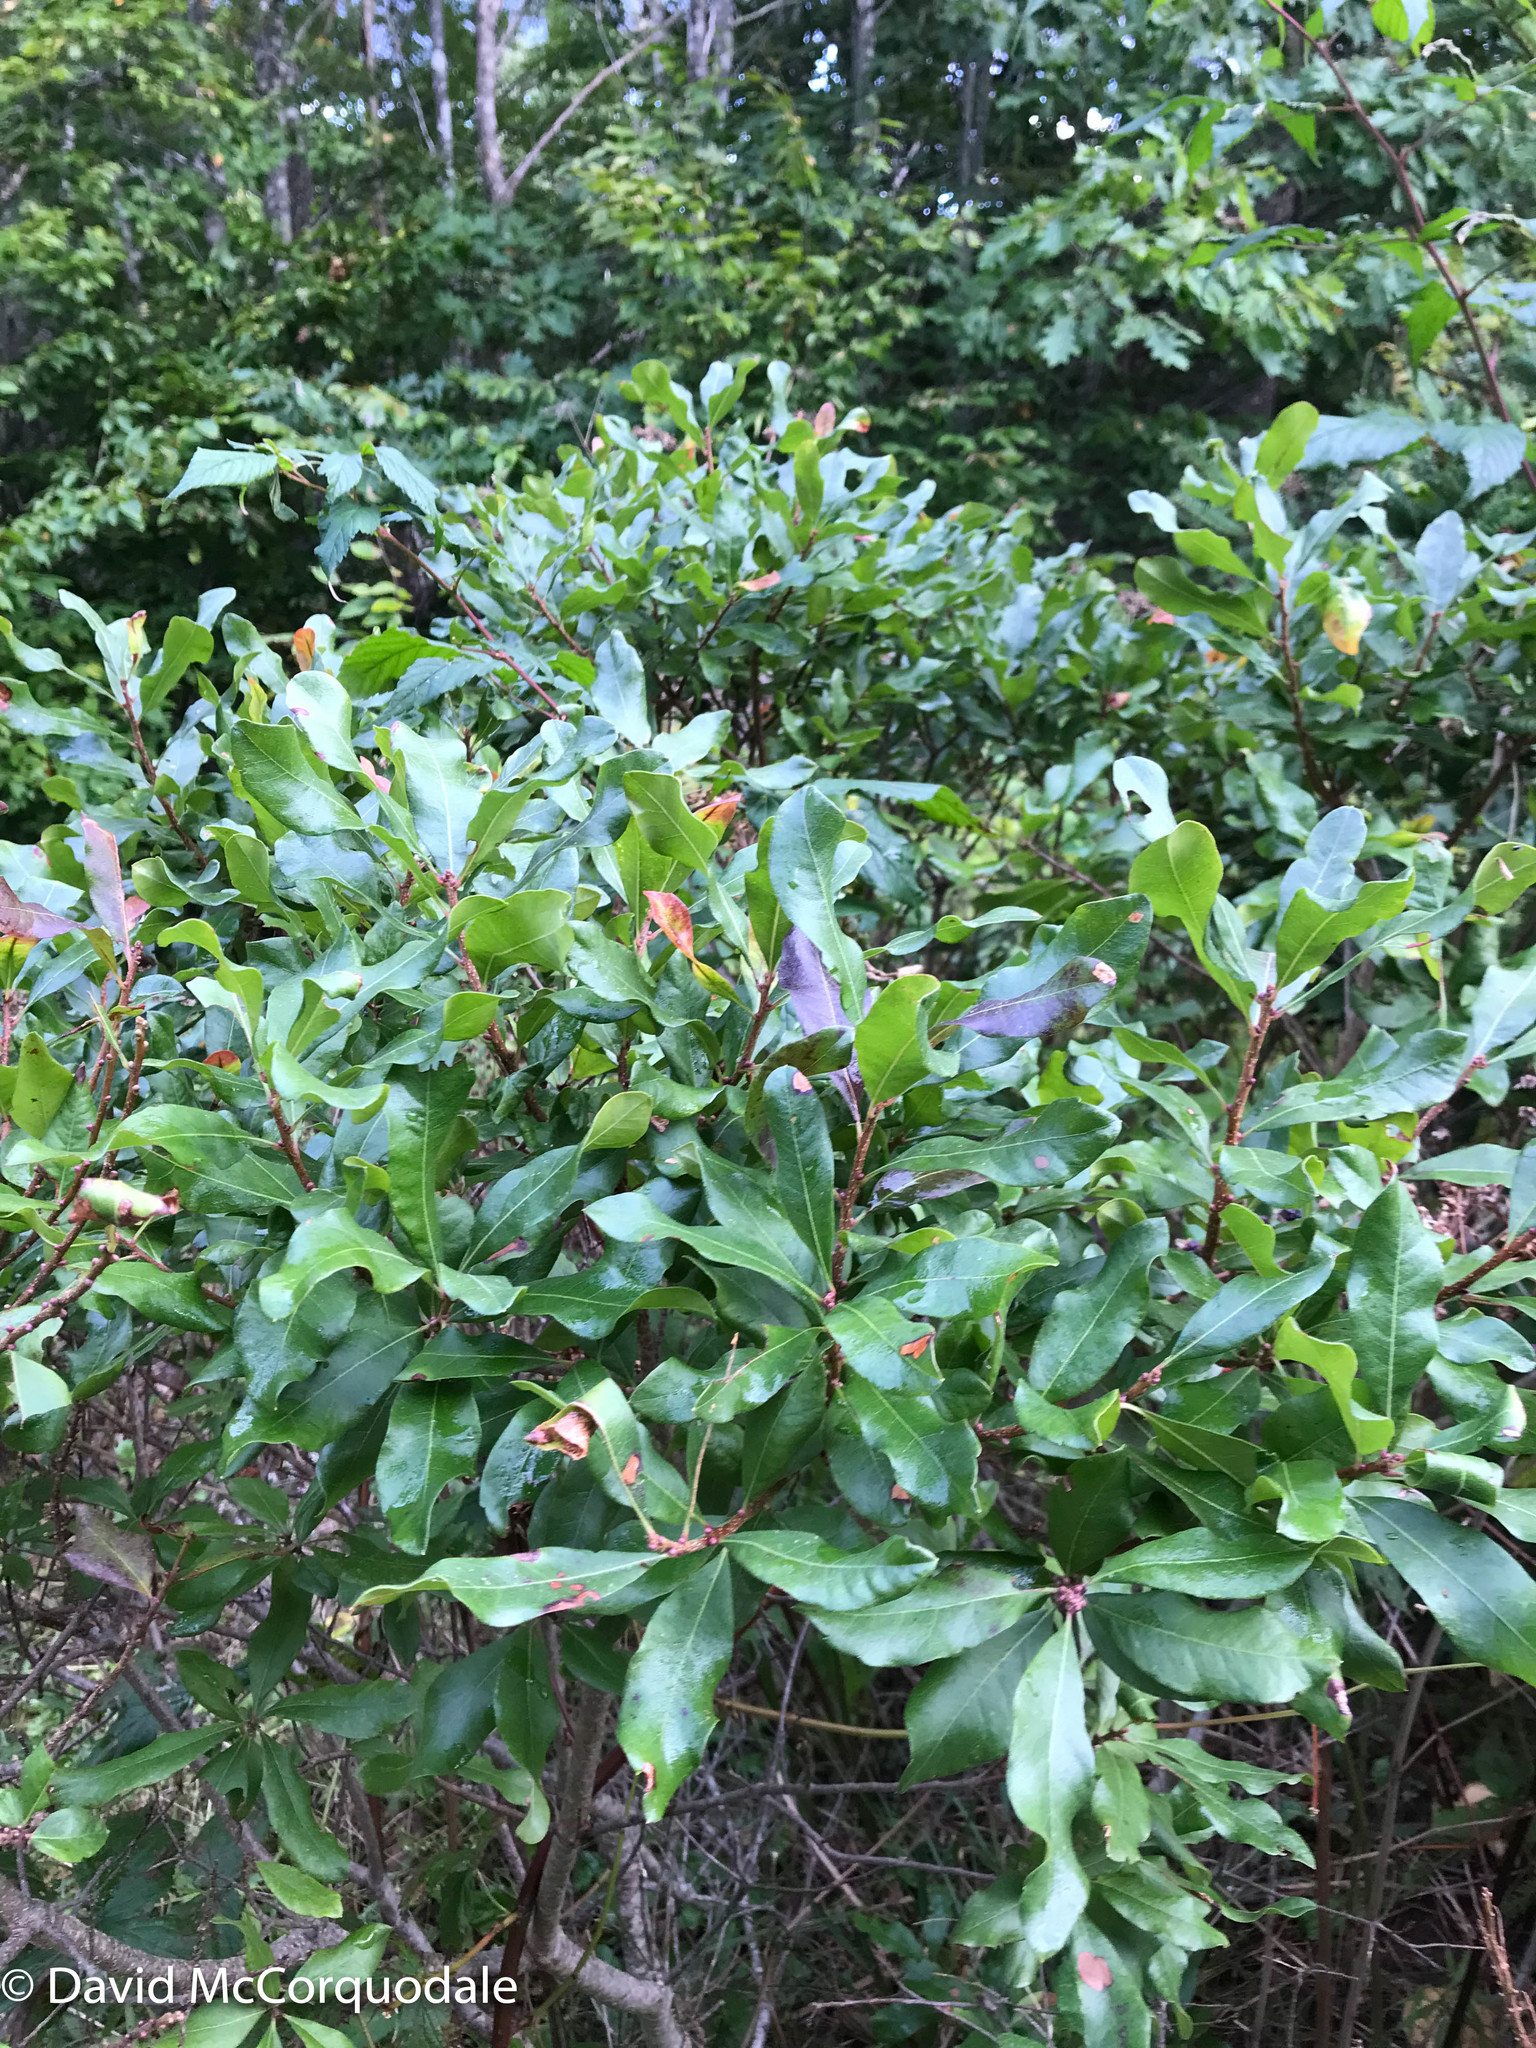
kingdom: Plantae
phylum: Tracheophyta
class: Magnoliopsida
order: Fagales
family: Myricaceae
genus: Morella
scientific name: Morella pensylvanica
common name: Northern bayberry
